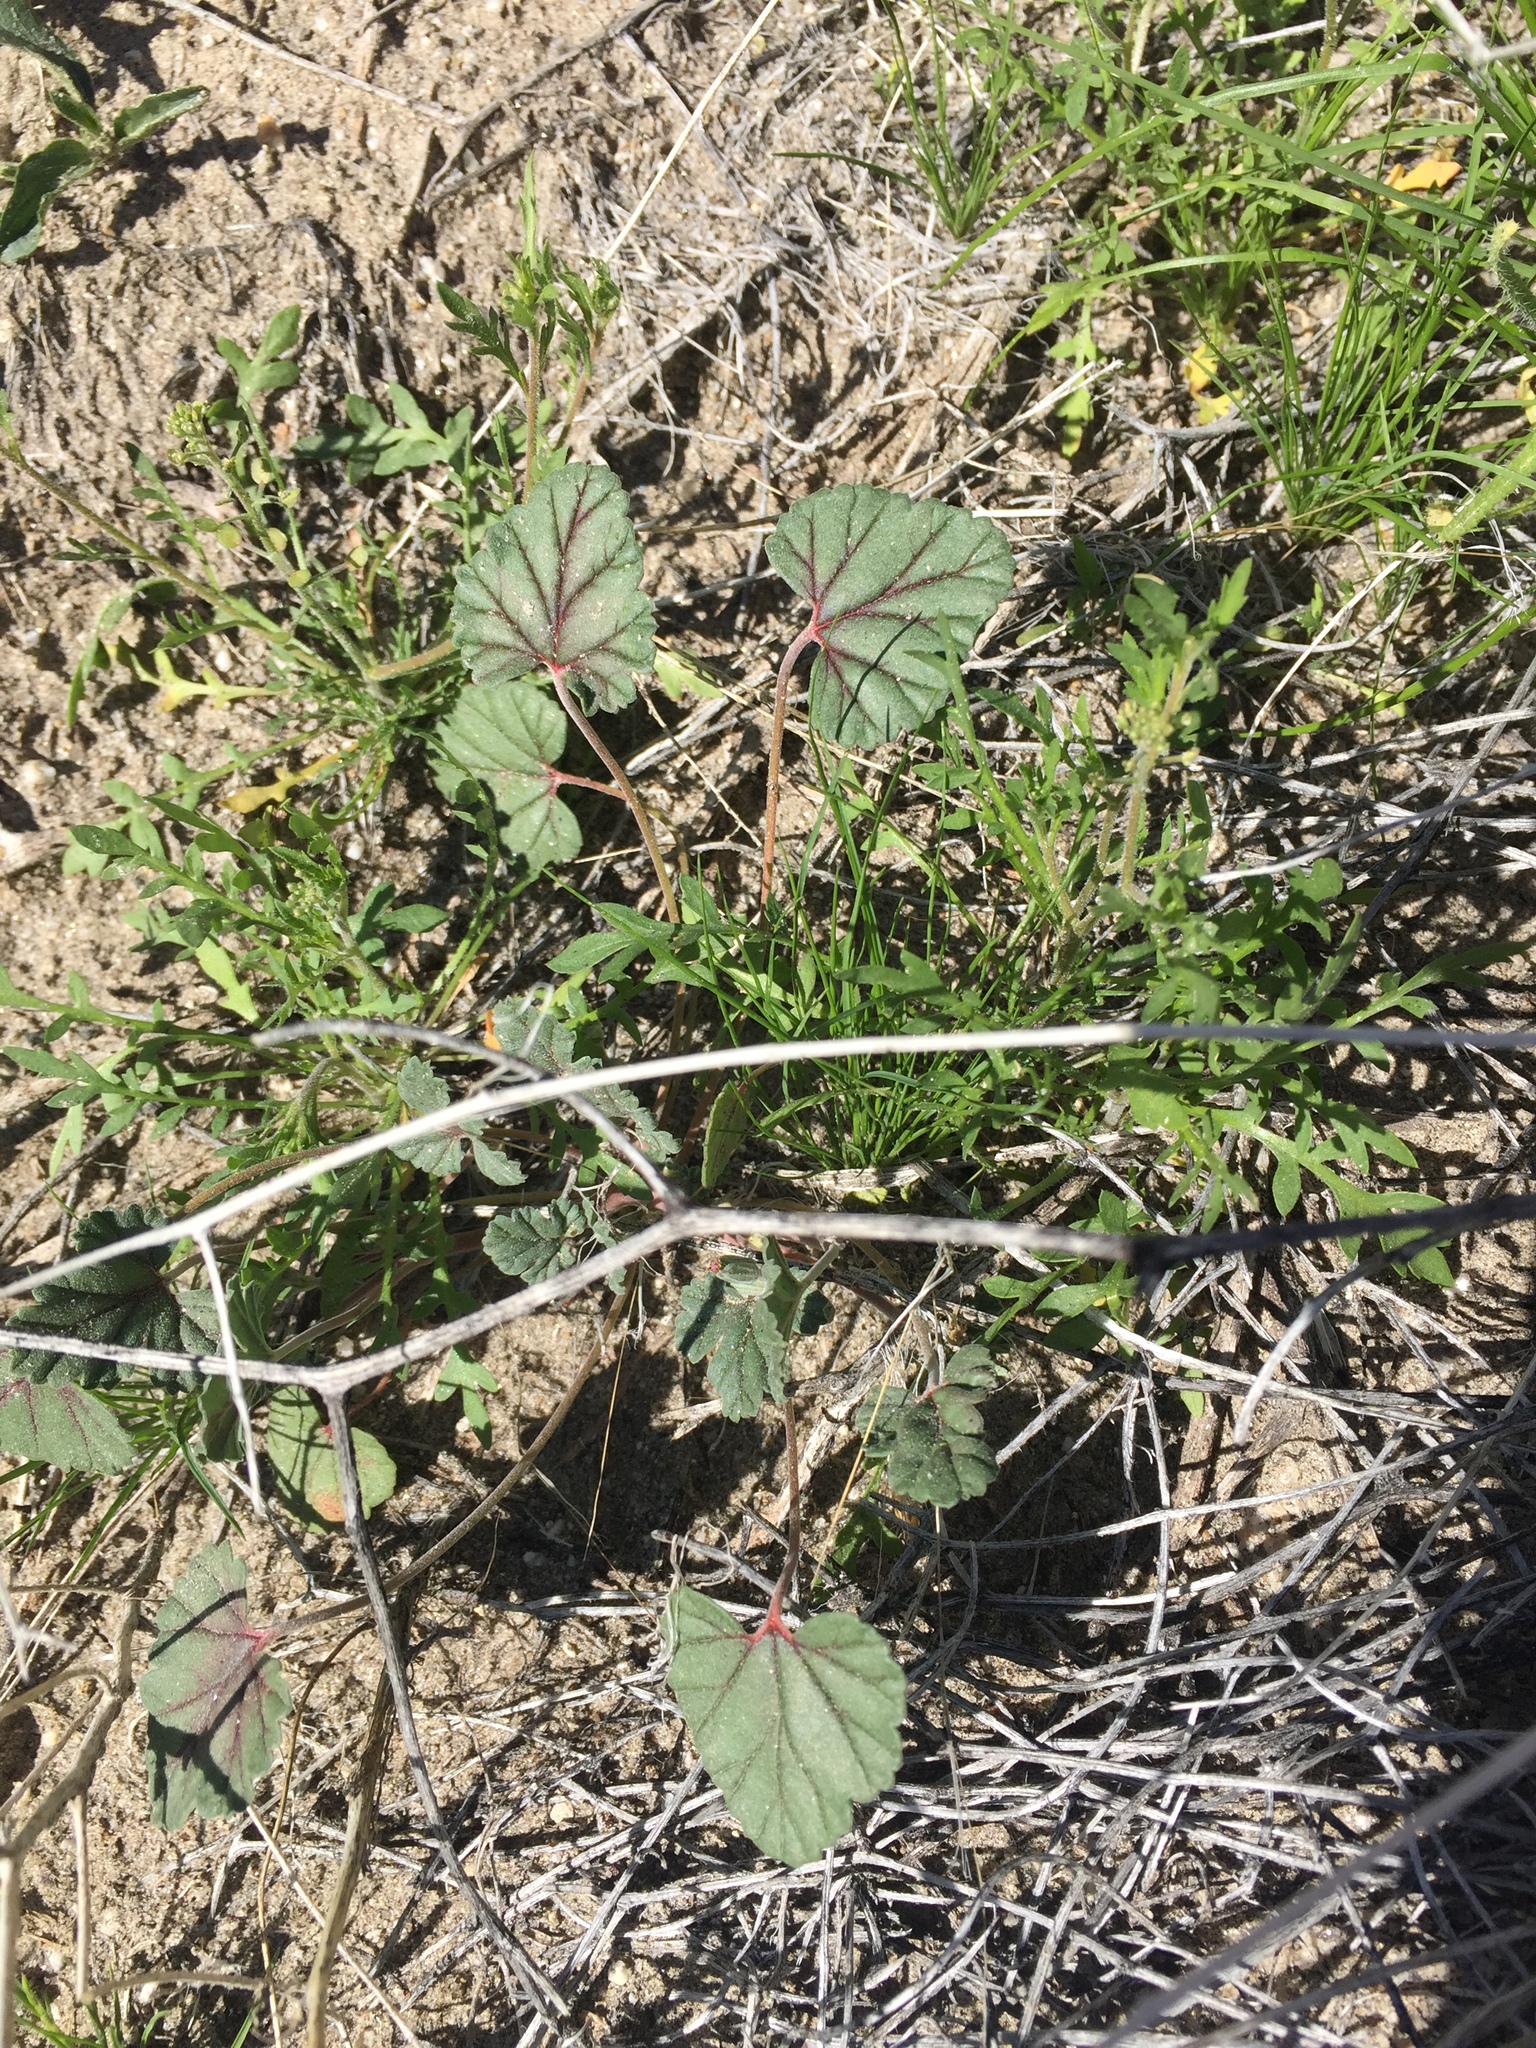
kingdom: Plantae
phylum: Tracheophyta
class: Magnoliopsida
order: Geraniales
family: Geraniaceae
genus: Erodium
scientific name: Erodium texanum
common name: Texas stork's-bill
